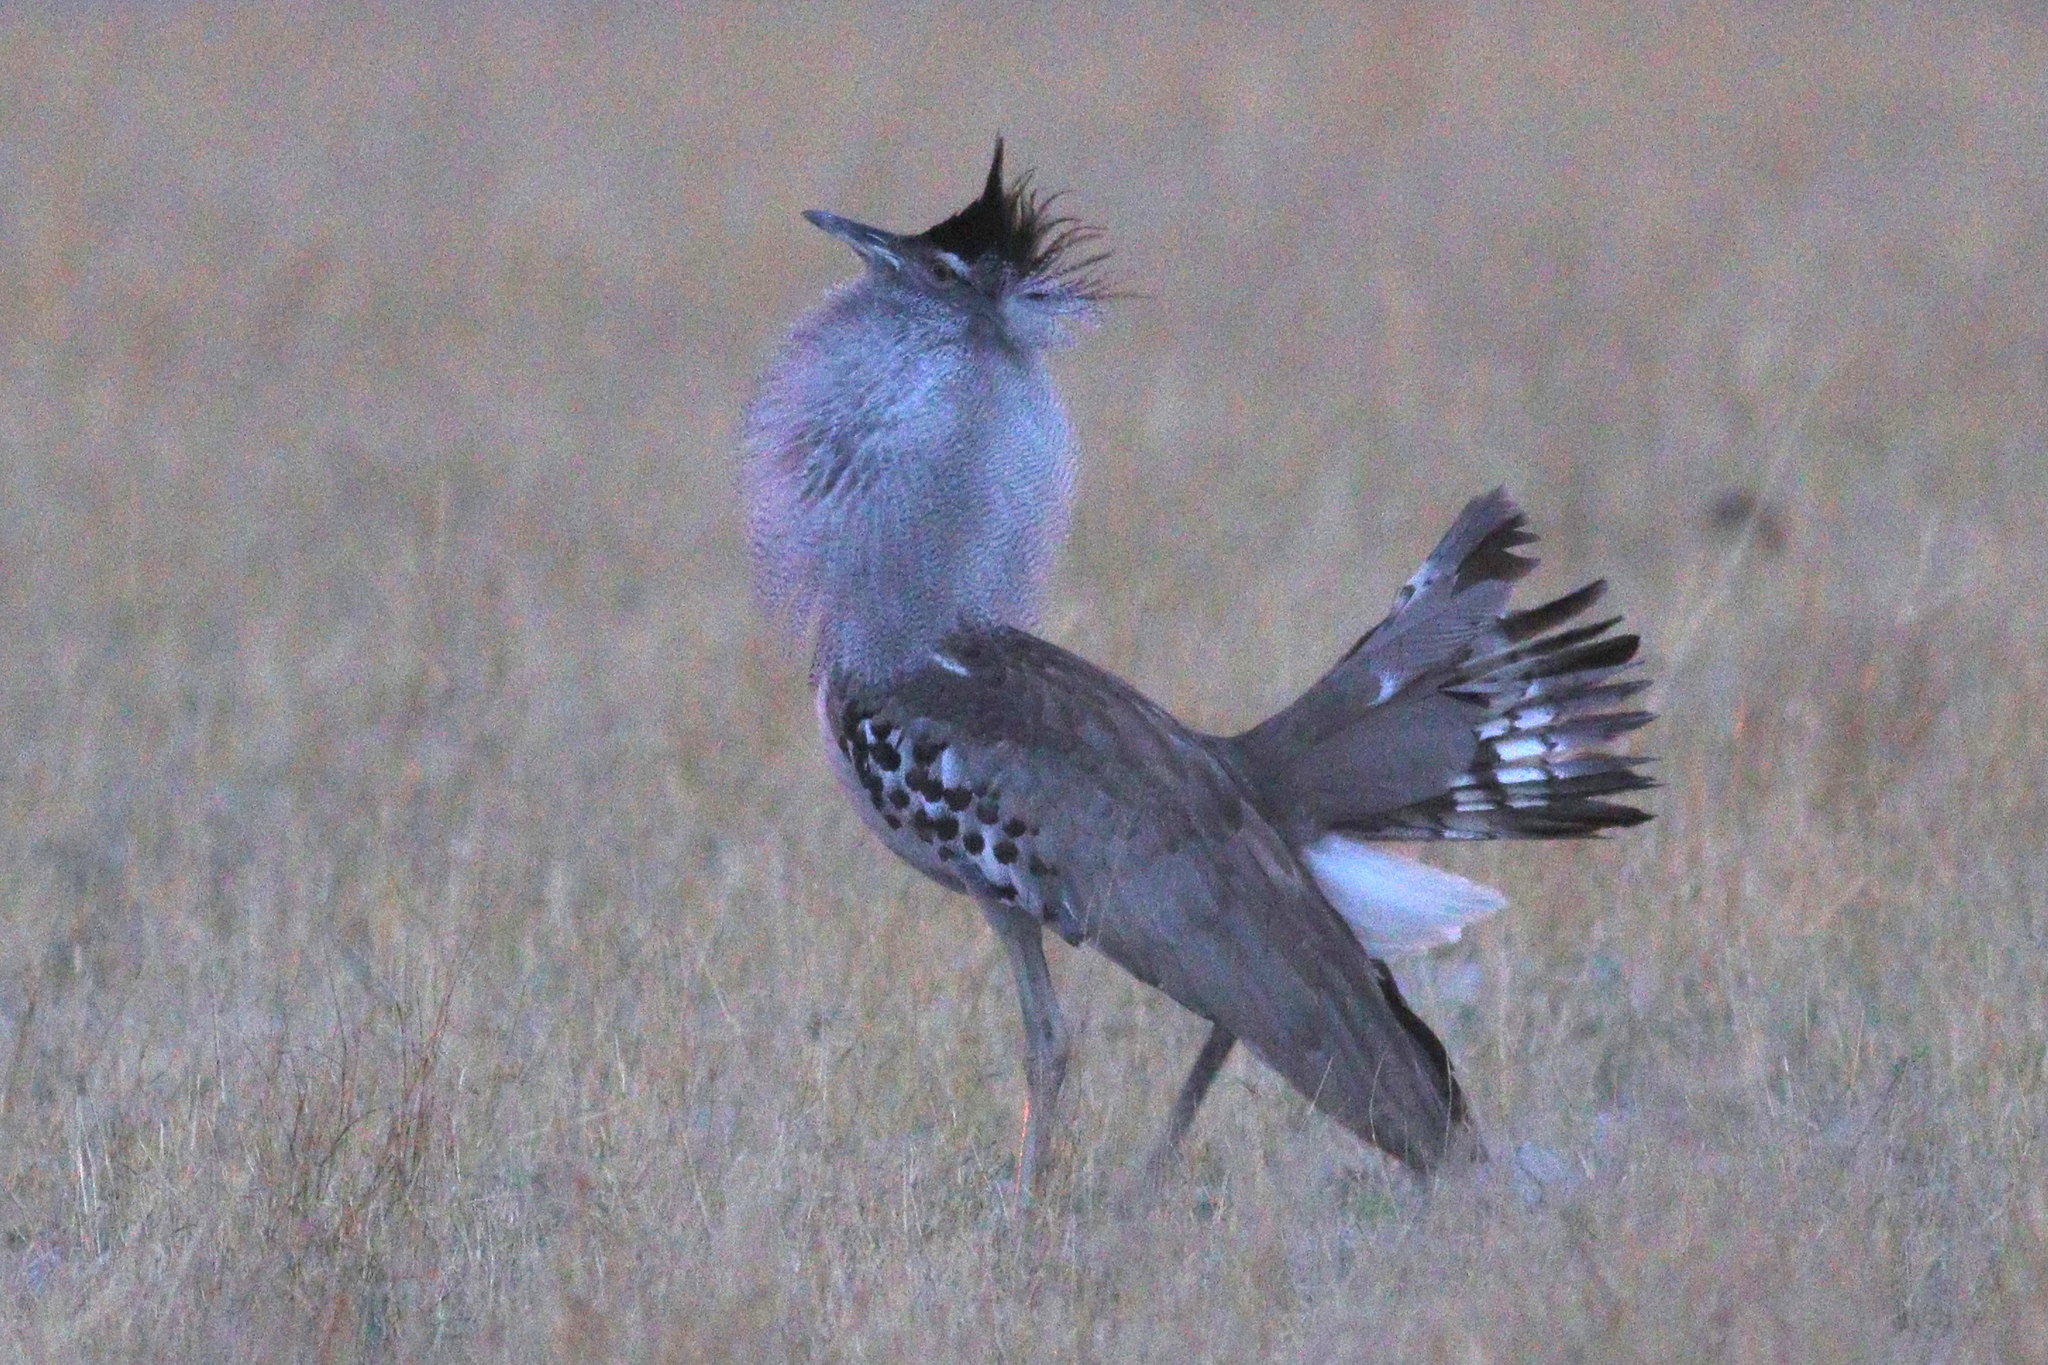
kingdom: Animalia
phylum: Chordata
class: Aves
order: Otidiformes
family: Otididae
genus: Ardeotis
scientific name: Ardeotis kori
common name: Kori bustard
